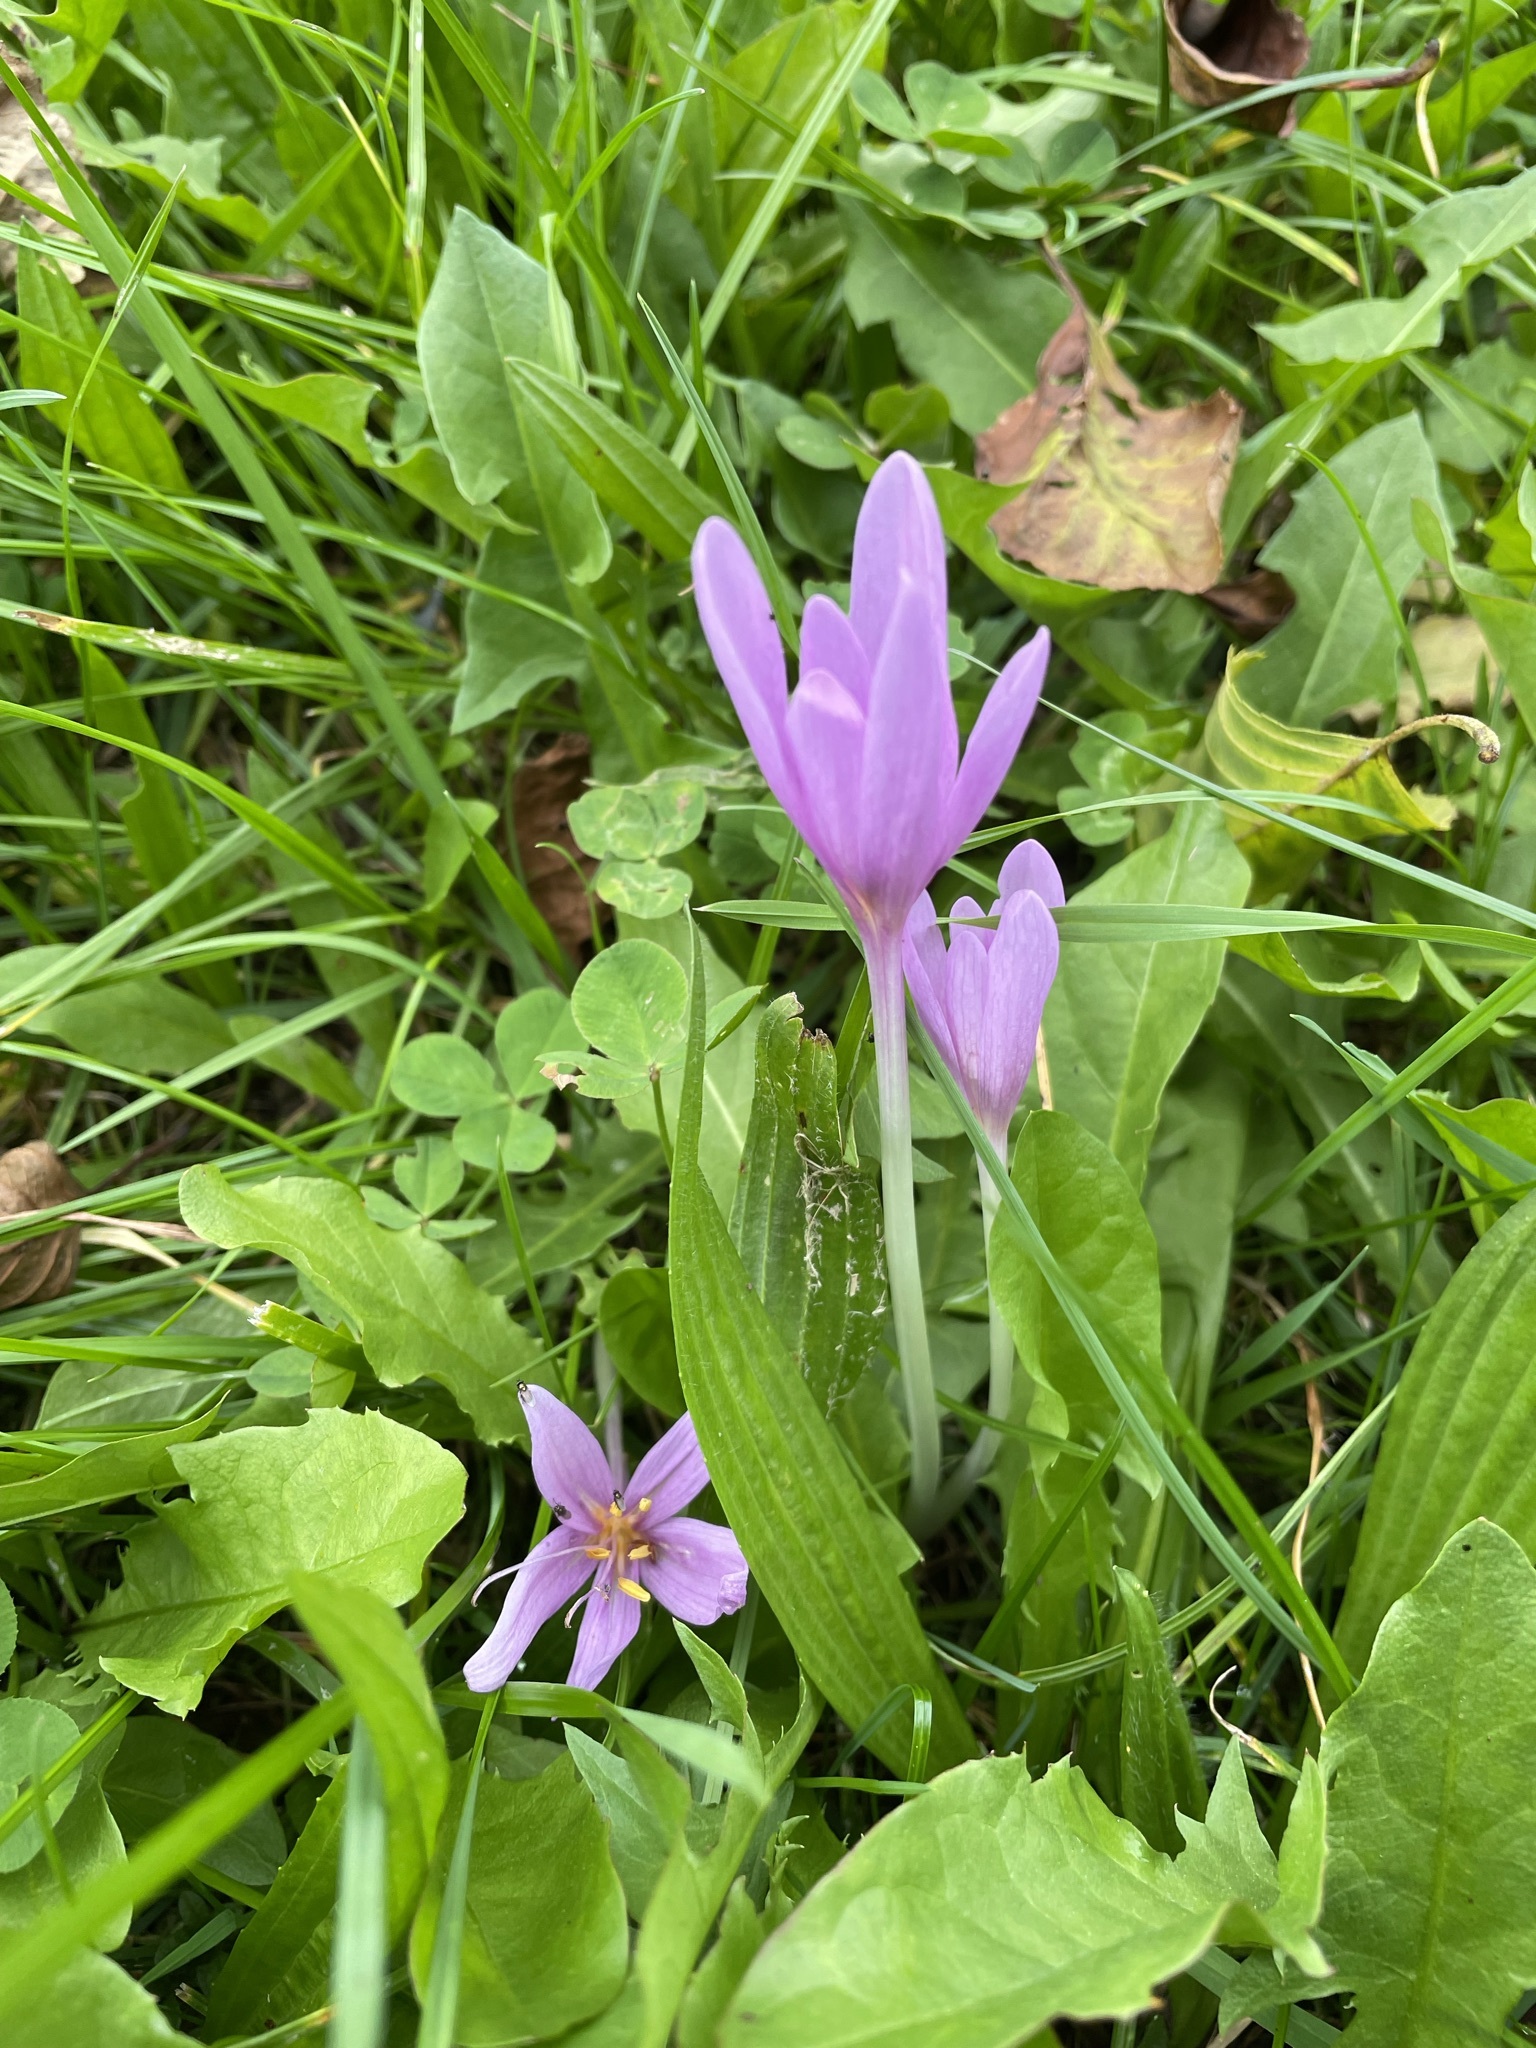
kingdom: Plantae
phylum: Tracheophyta
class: Liliopsida
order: Liliales
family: Colchicaceae
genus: Colchicum
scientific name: Colchicum autumnale
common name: Autumn crocus
